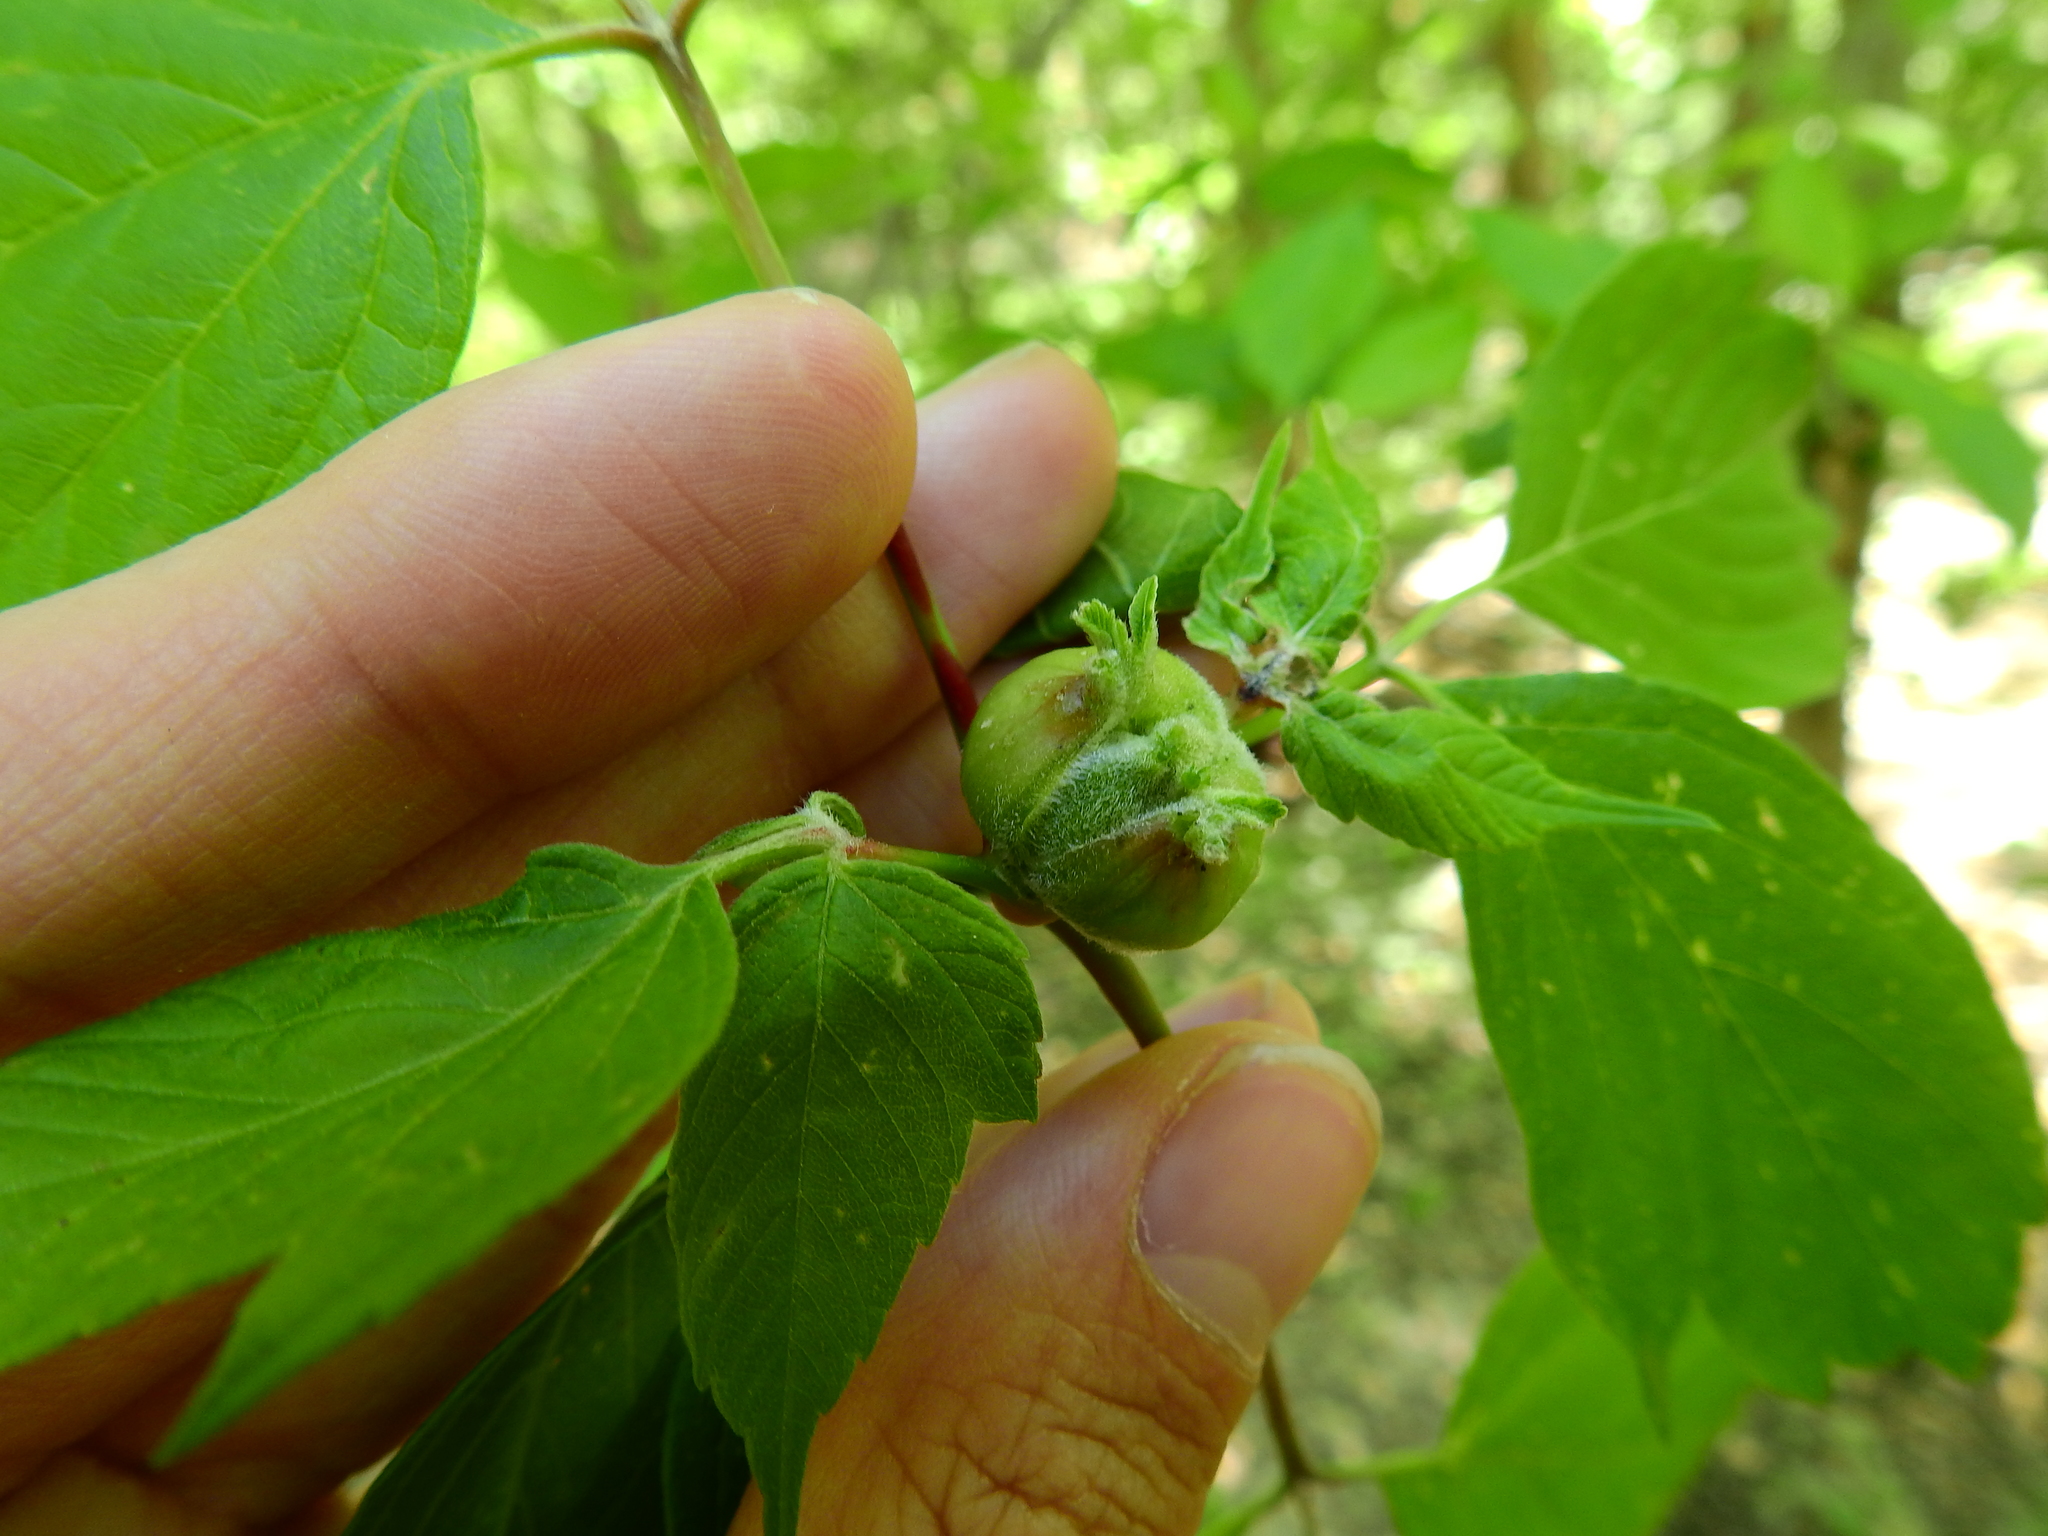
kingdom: Animalia
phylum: Arthropoda
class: Insecta
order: Diptera
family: Cecidomyiidae
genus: Contarinia
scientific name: Contarinia negundinis
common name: Boxelder budgall midge
